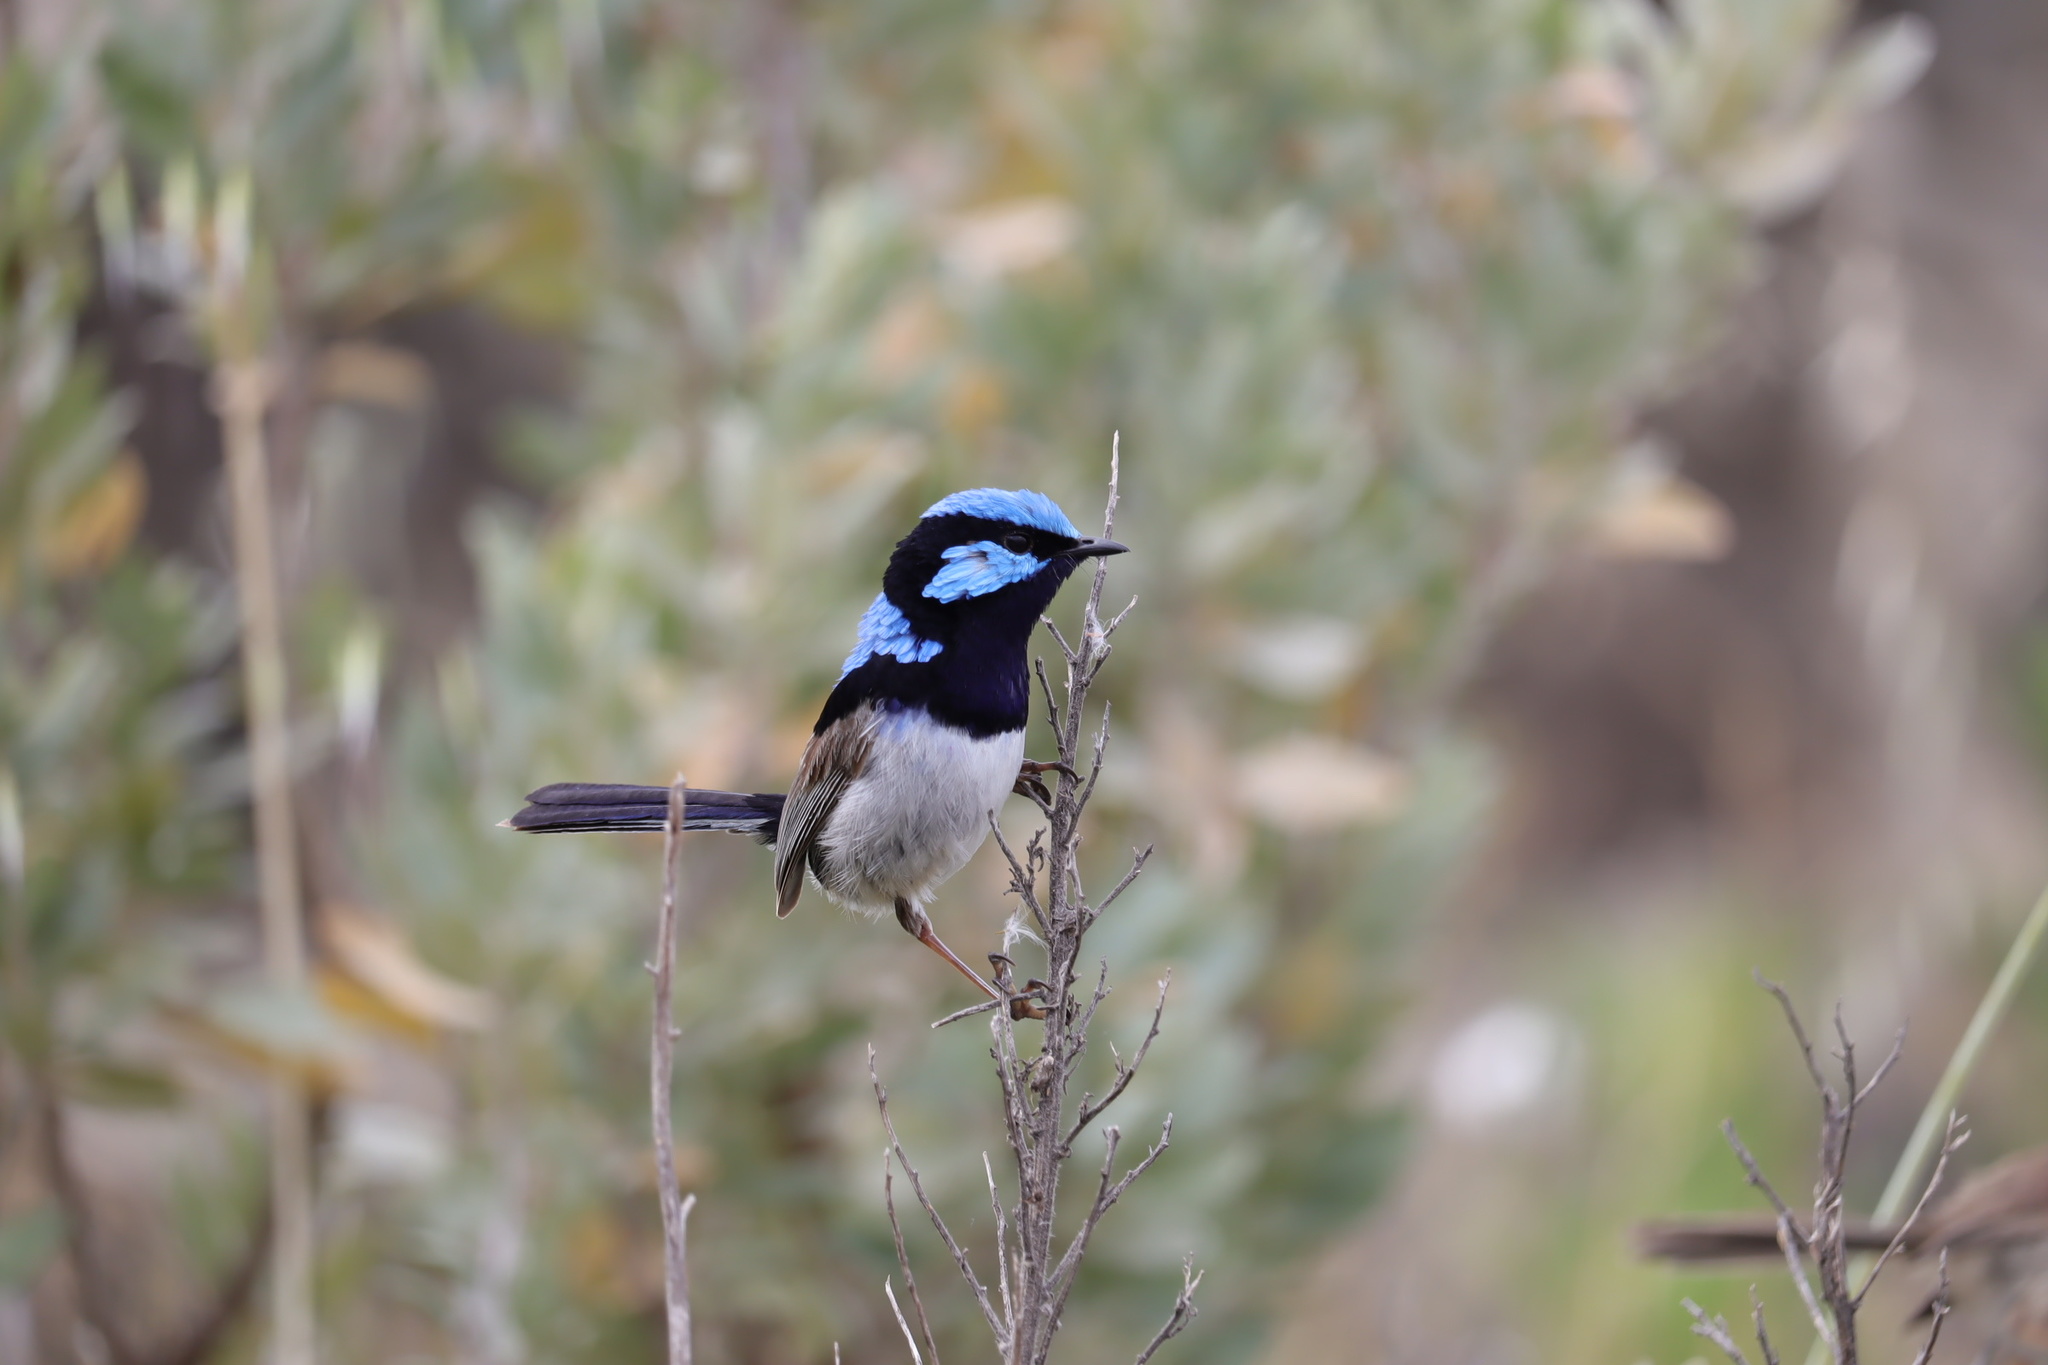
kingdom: Animalia
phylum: Chordata
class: Aves
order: Passeriformes
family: Maluridae
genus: Malurus
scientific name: Malurus cyaneus
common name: Superb fairywren
